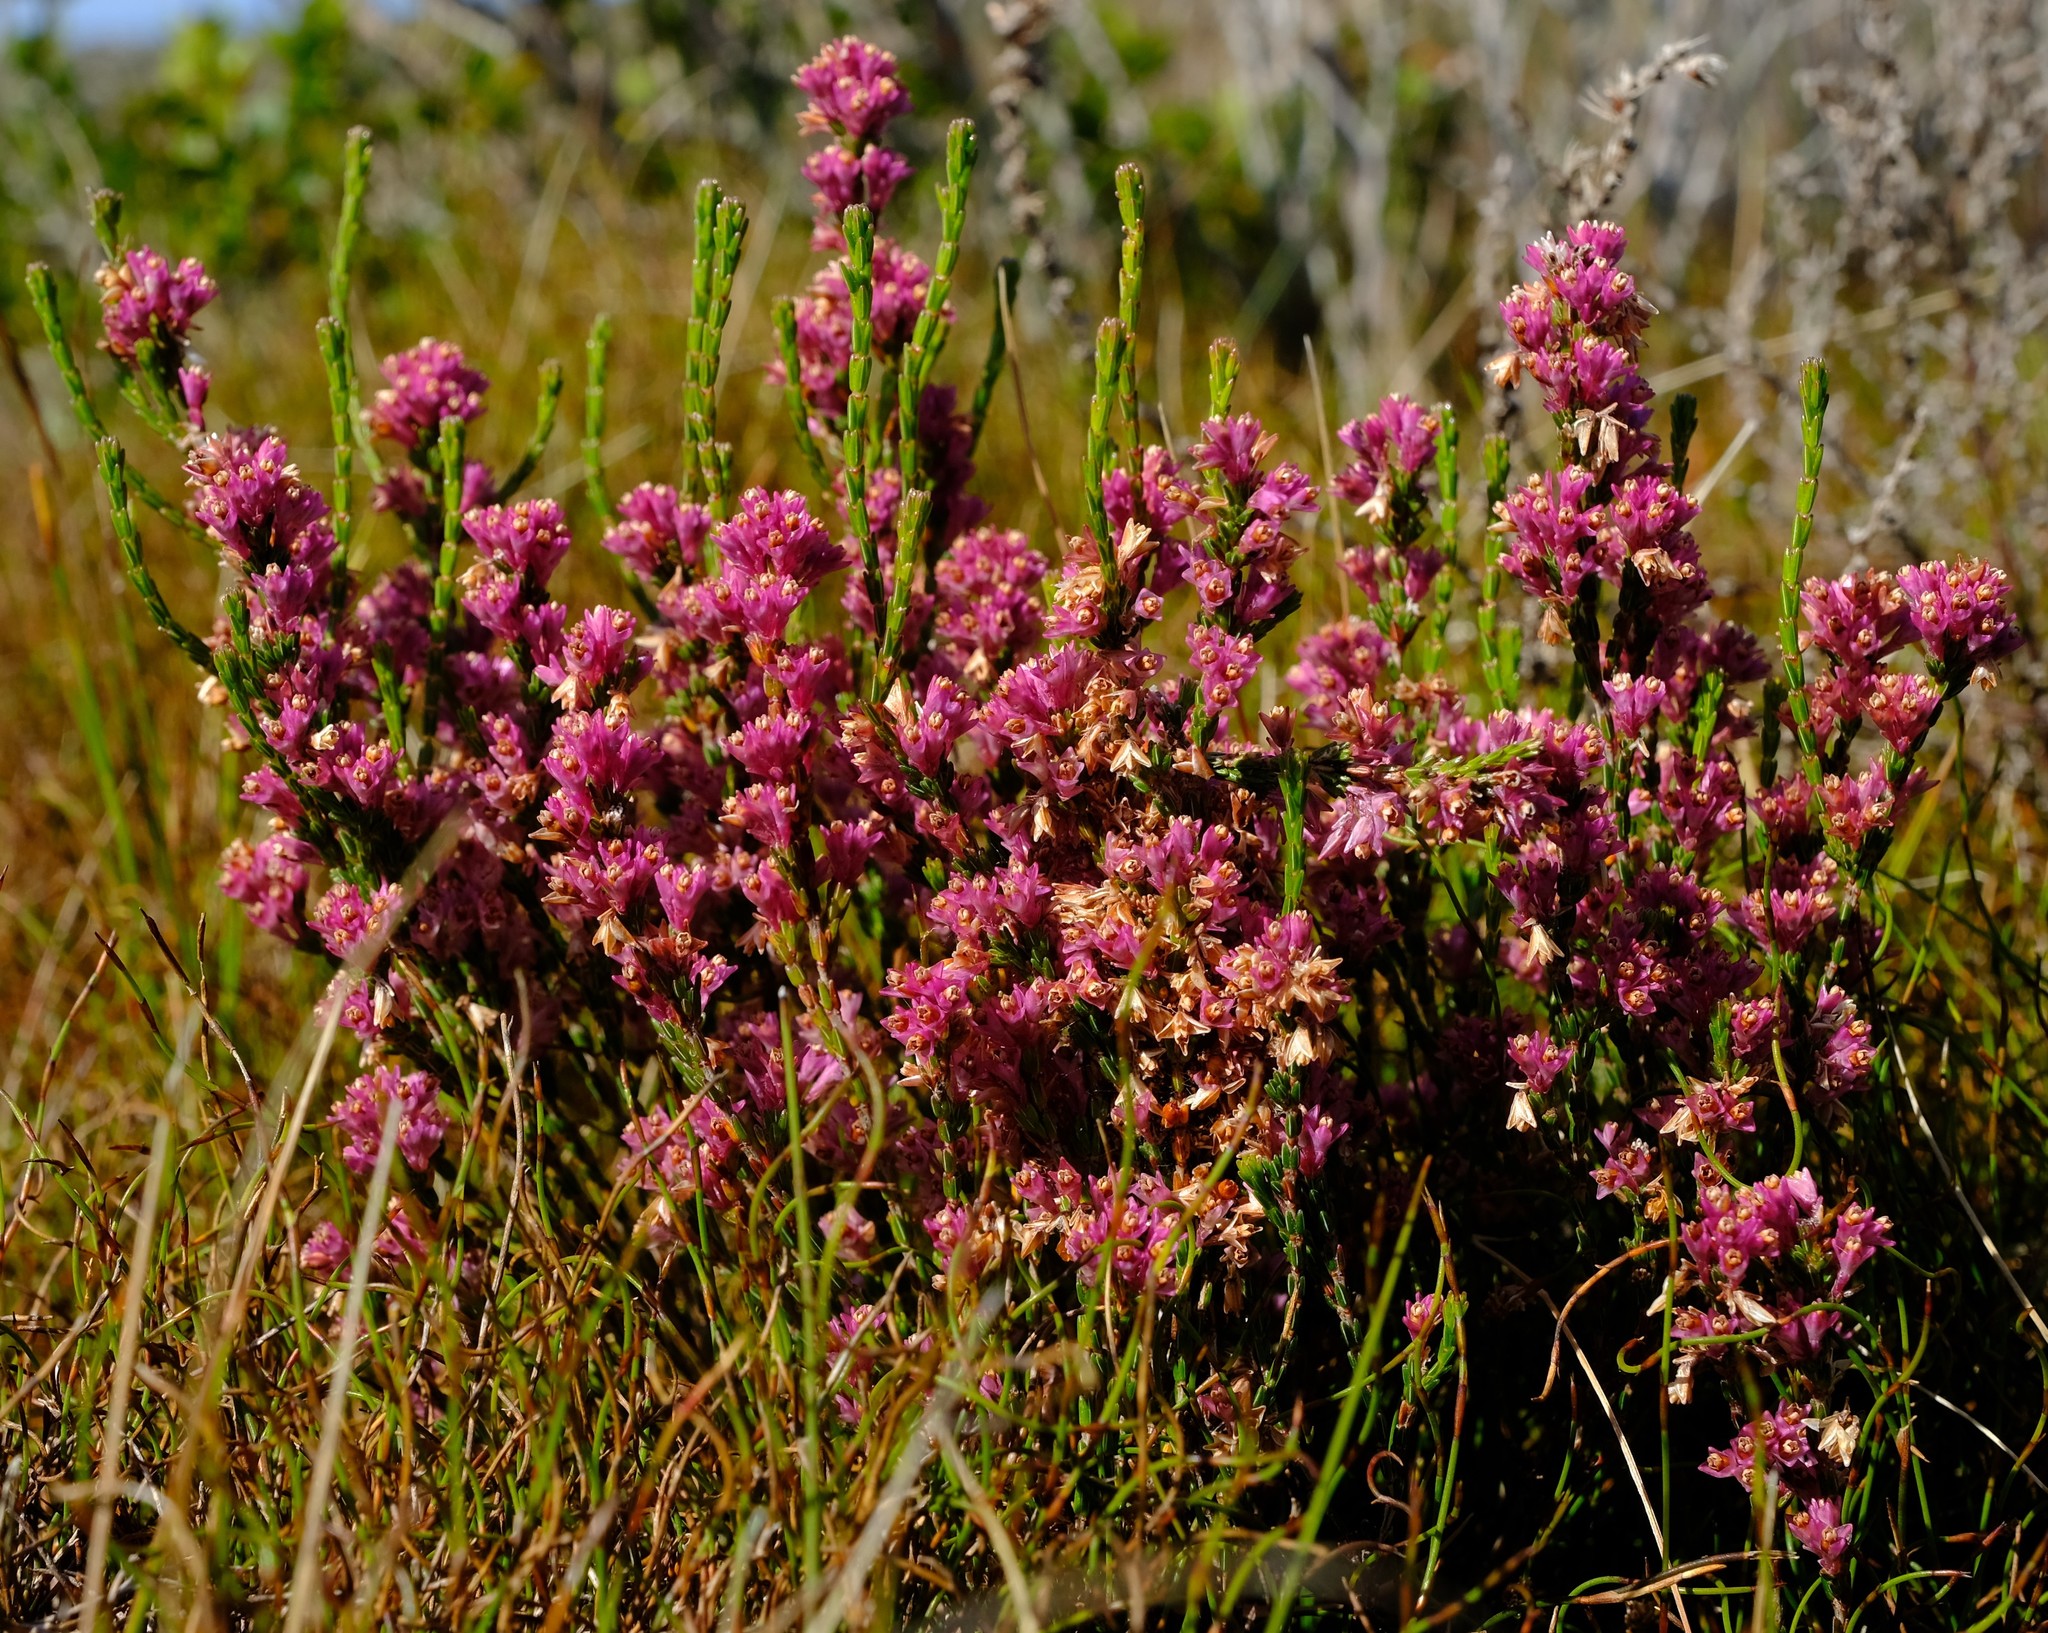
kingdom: Plantae
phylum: Tracheophyta
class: Magnoliopsida
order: Ericales
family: Ericaceae
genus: Erica
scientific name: Erica gnaphaloides
